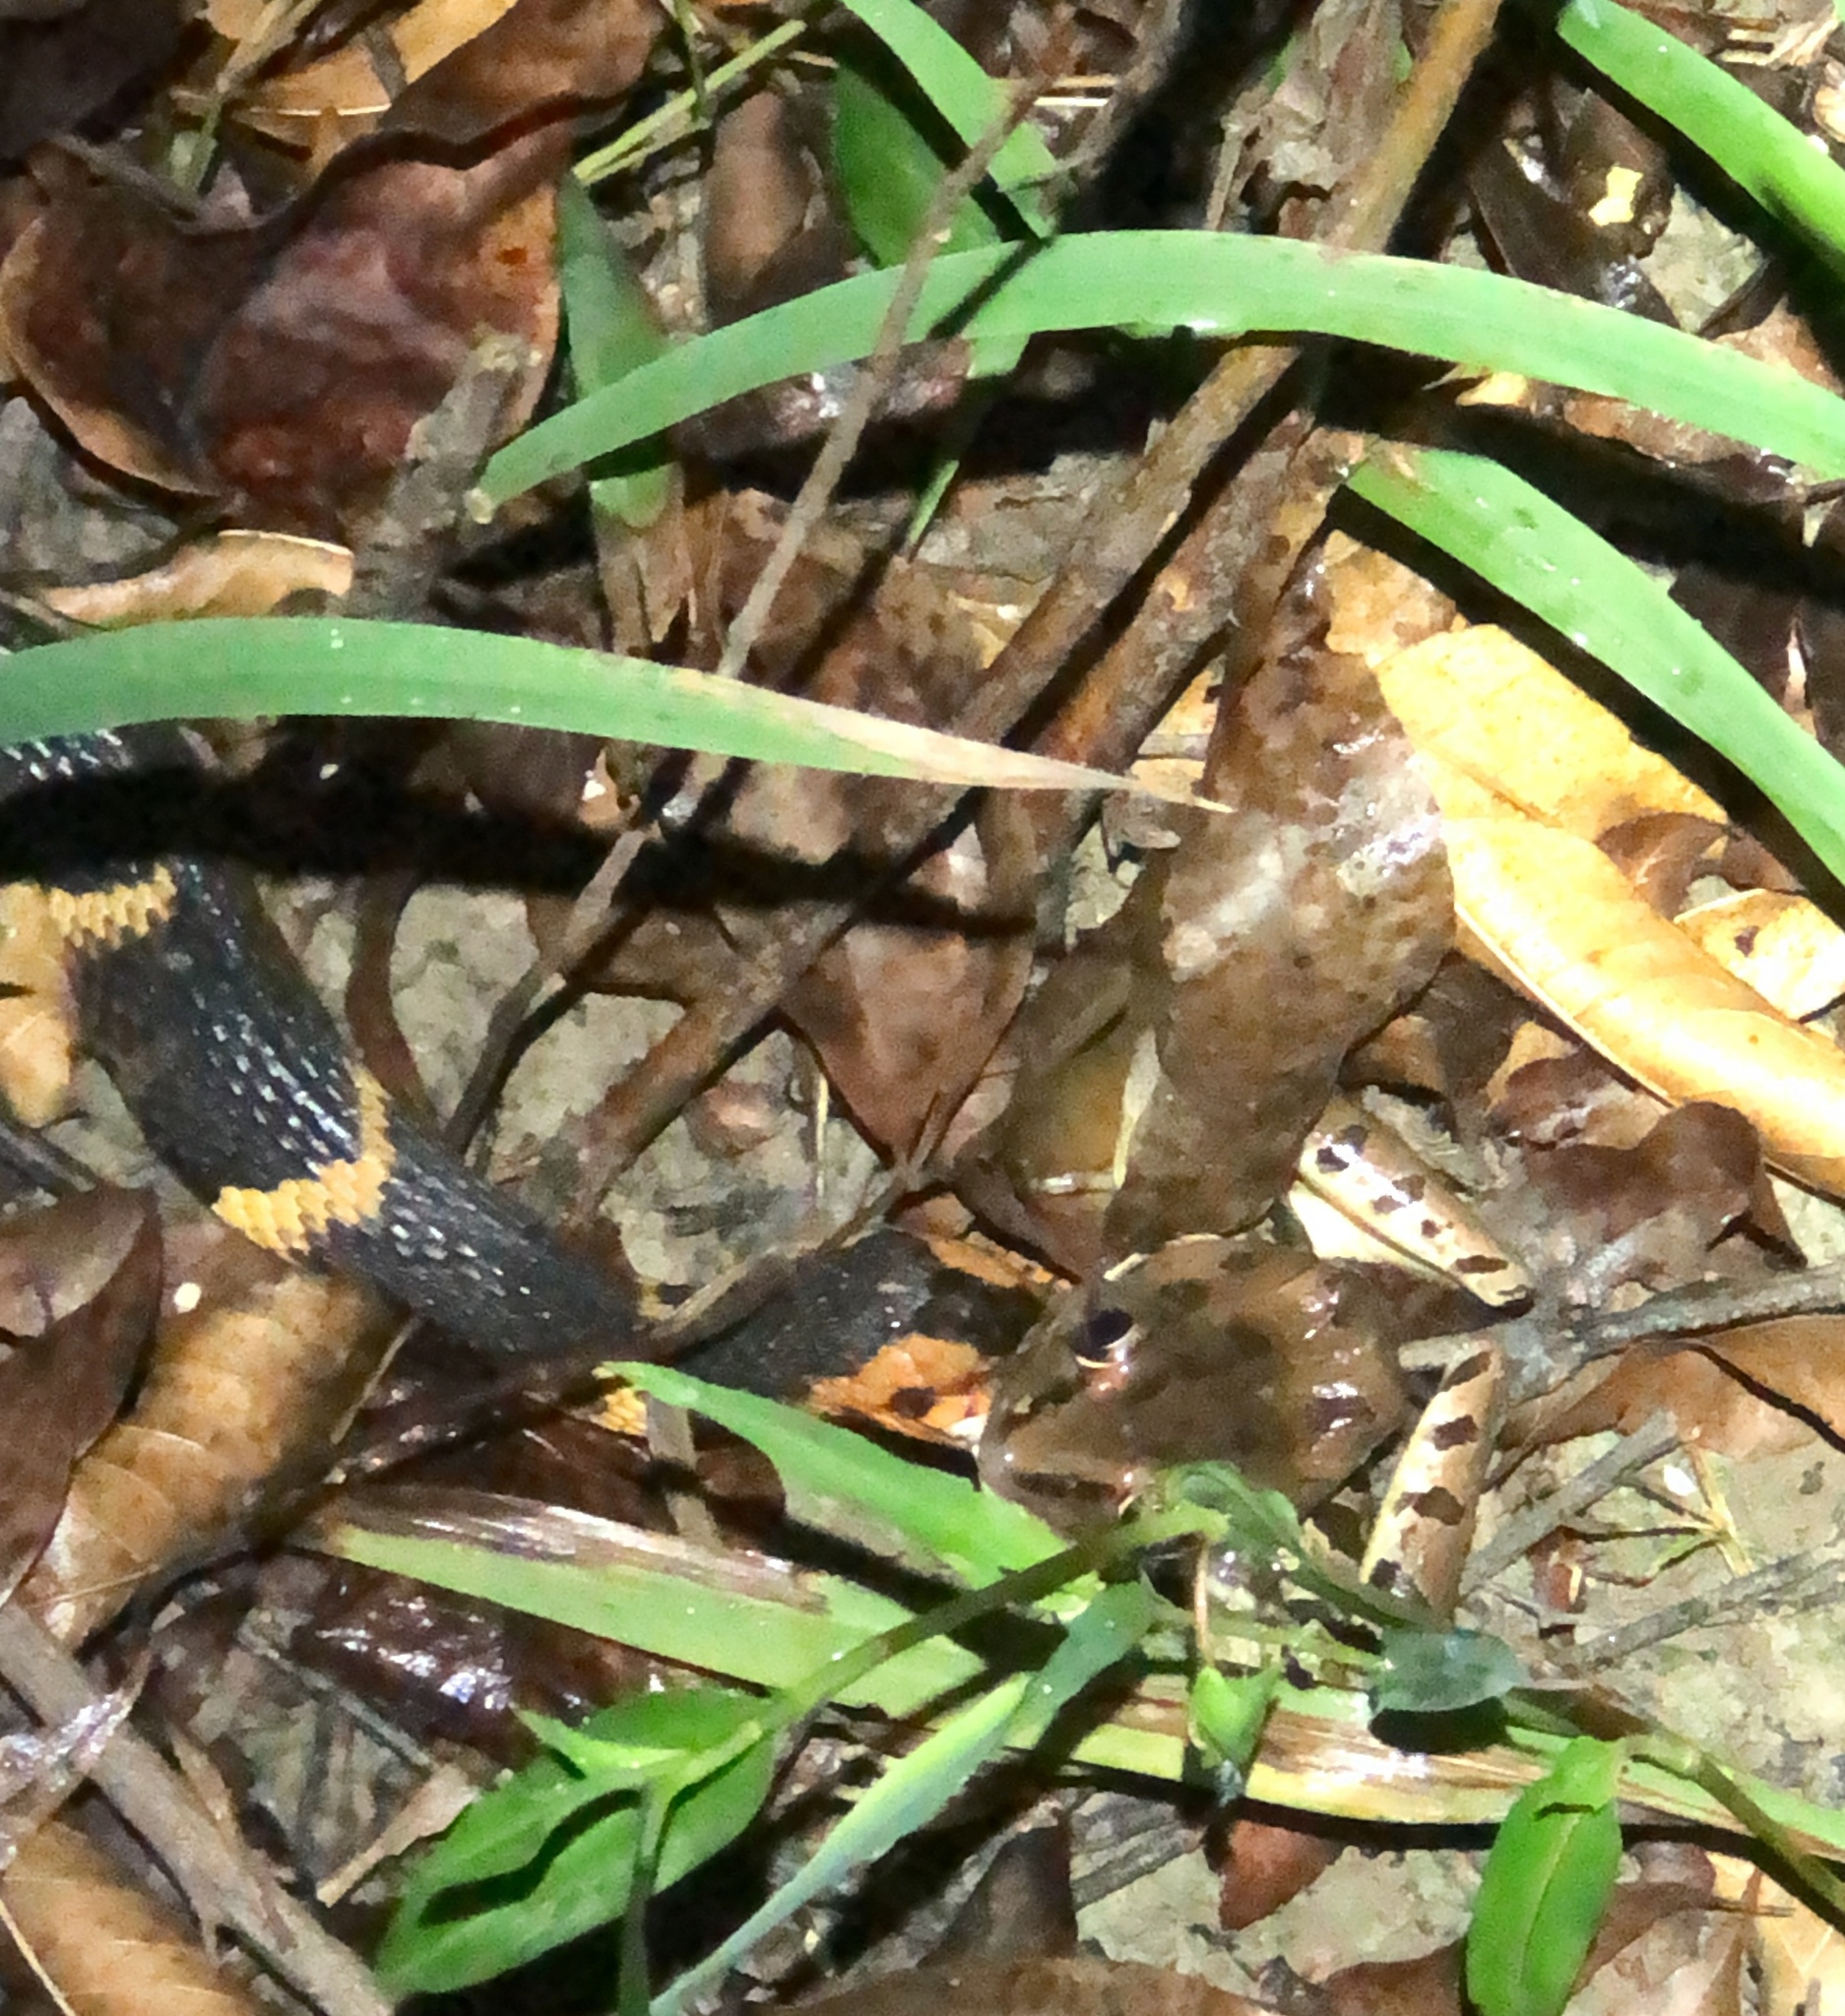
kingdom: Animalia
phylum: Chordata
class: Squamata
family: Colubridae
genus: Nerodia
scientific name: Nerodia fasciata
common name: Southern water snake
